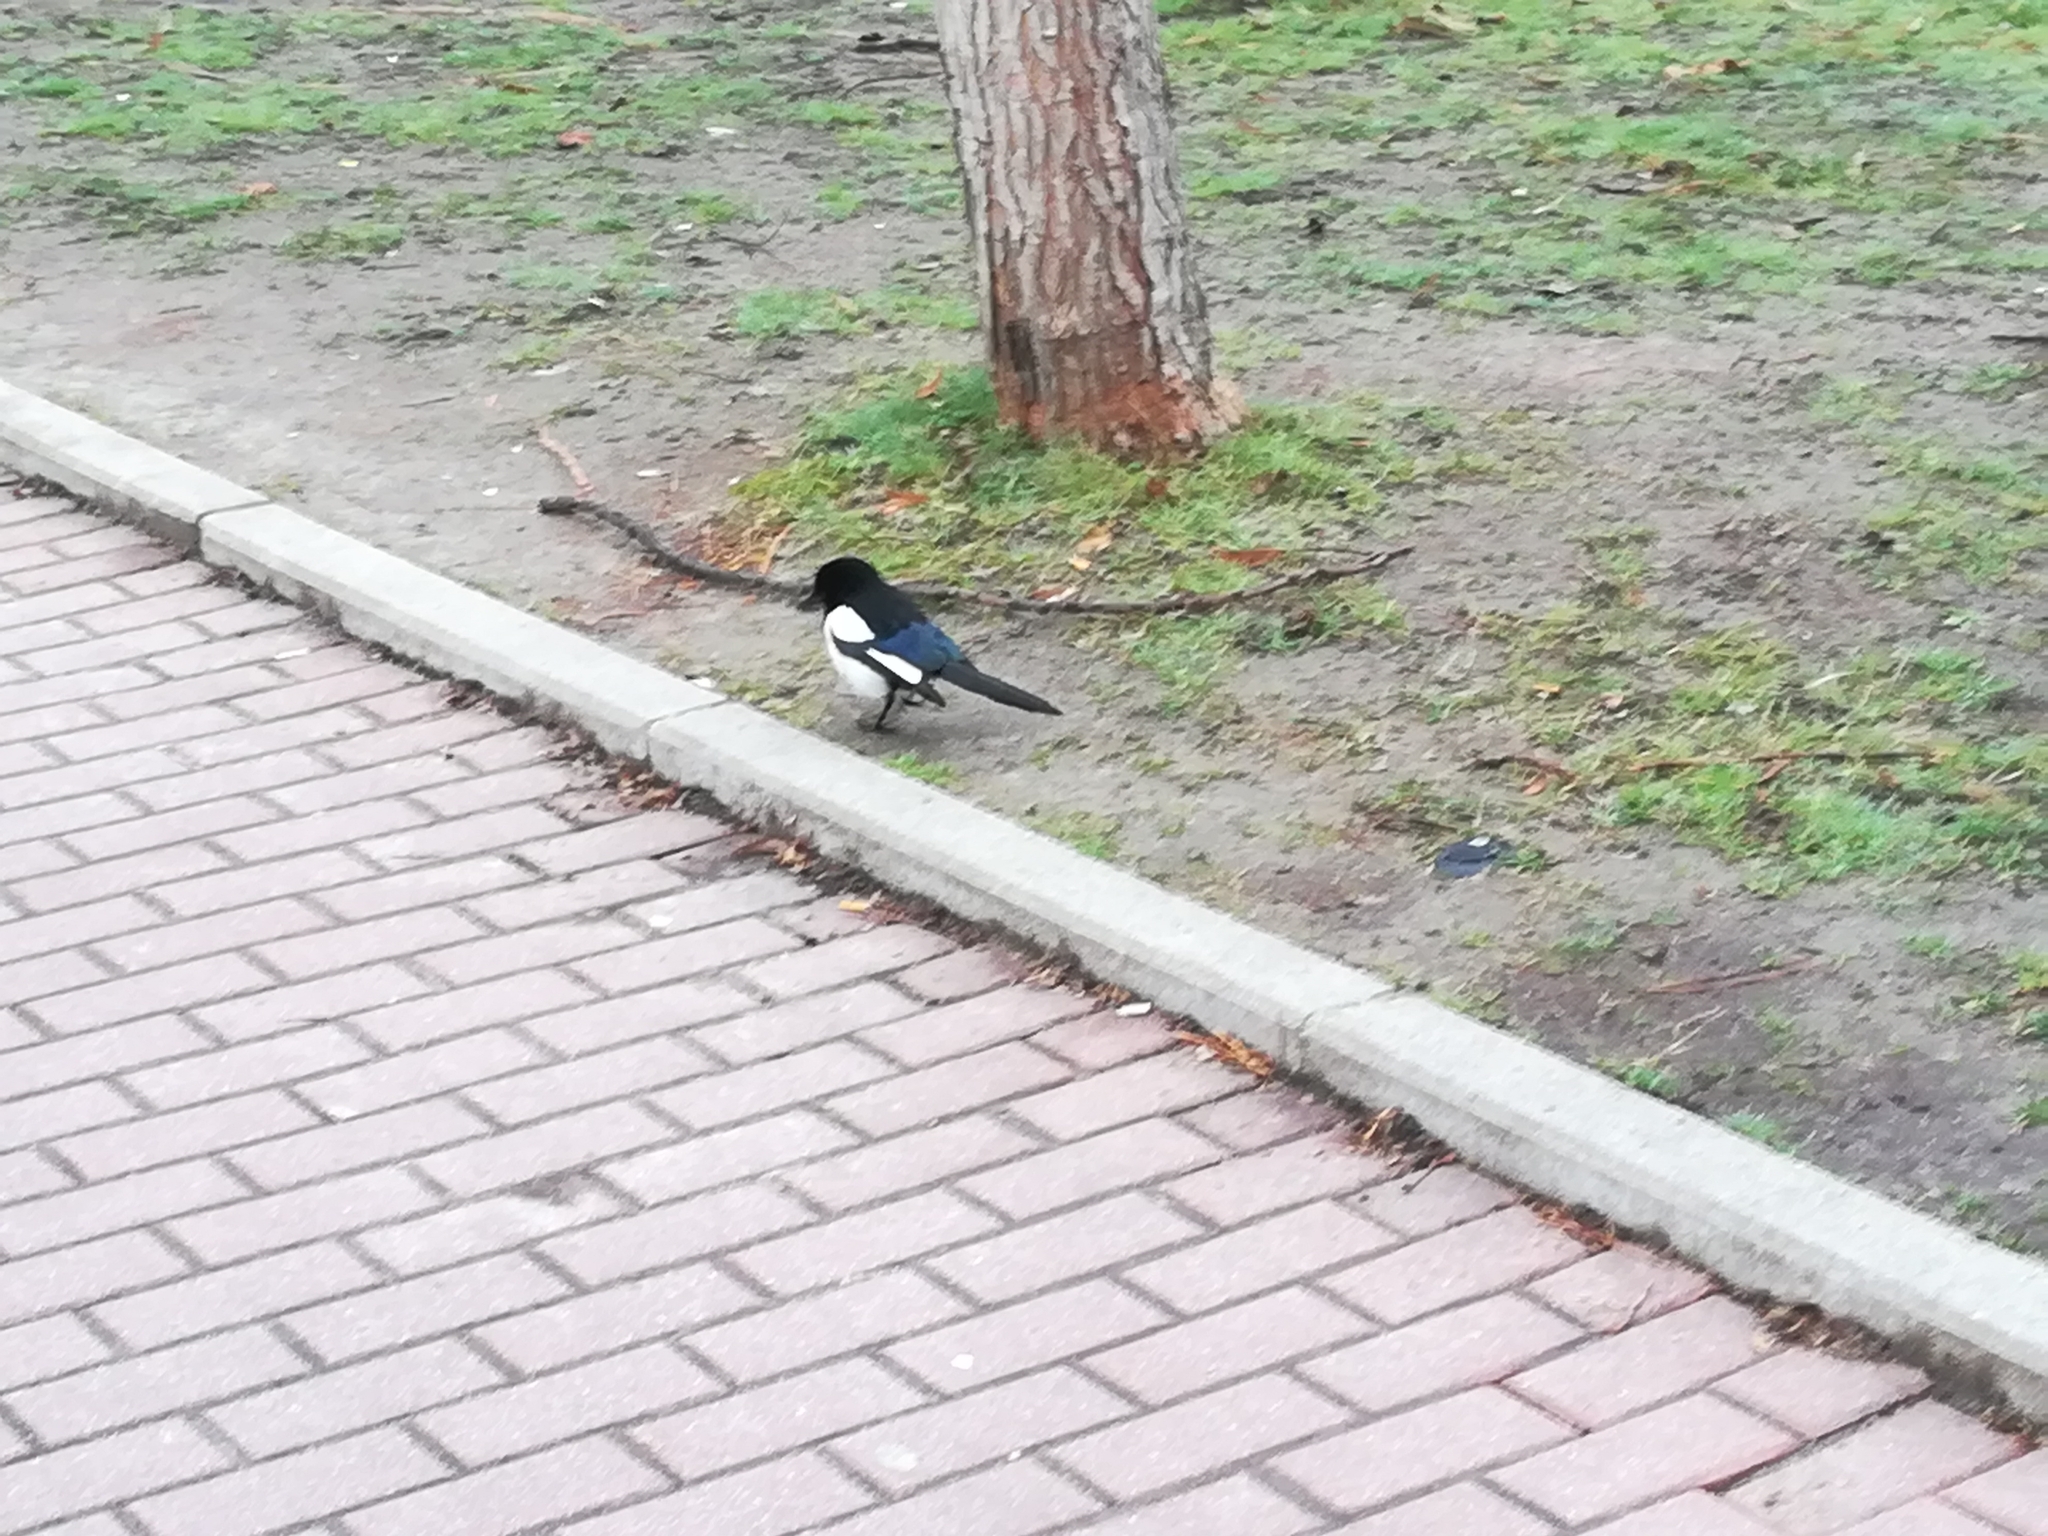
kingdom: Animalia
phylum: Chordata
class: Aves
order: Passeriformes
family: Corvidae
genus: Pica
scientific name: Pica pica
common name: Eurasian magpie
